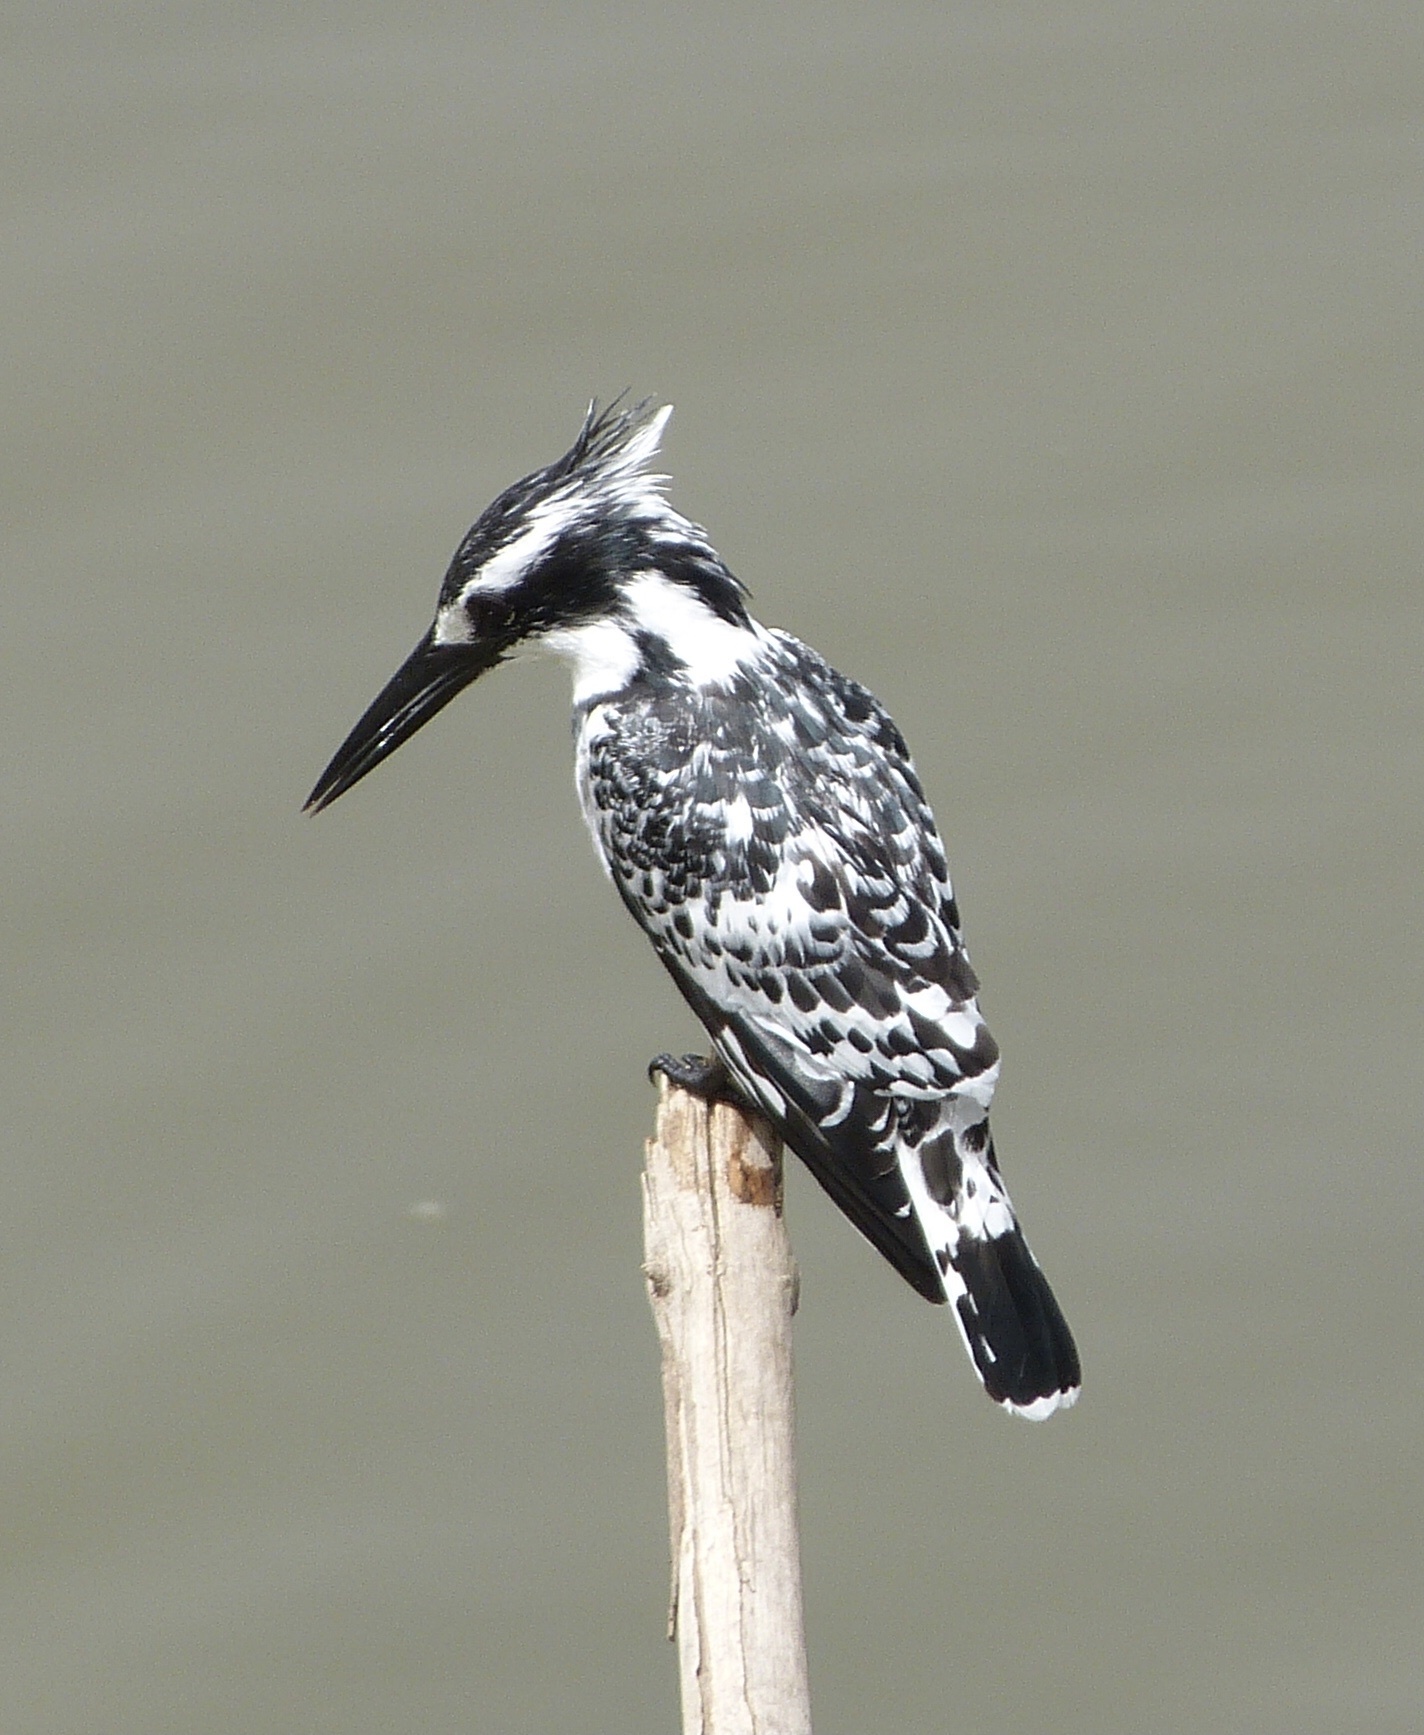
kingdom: Animalia
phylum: Chordata
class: Aves
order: Coraciiformes
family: Alcedinidae
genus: Ceryle
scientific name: Ceryle rudis
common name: Pied kingfisher
